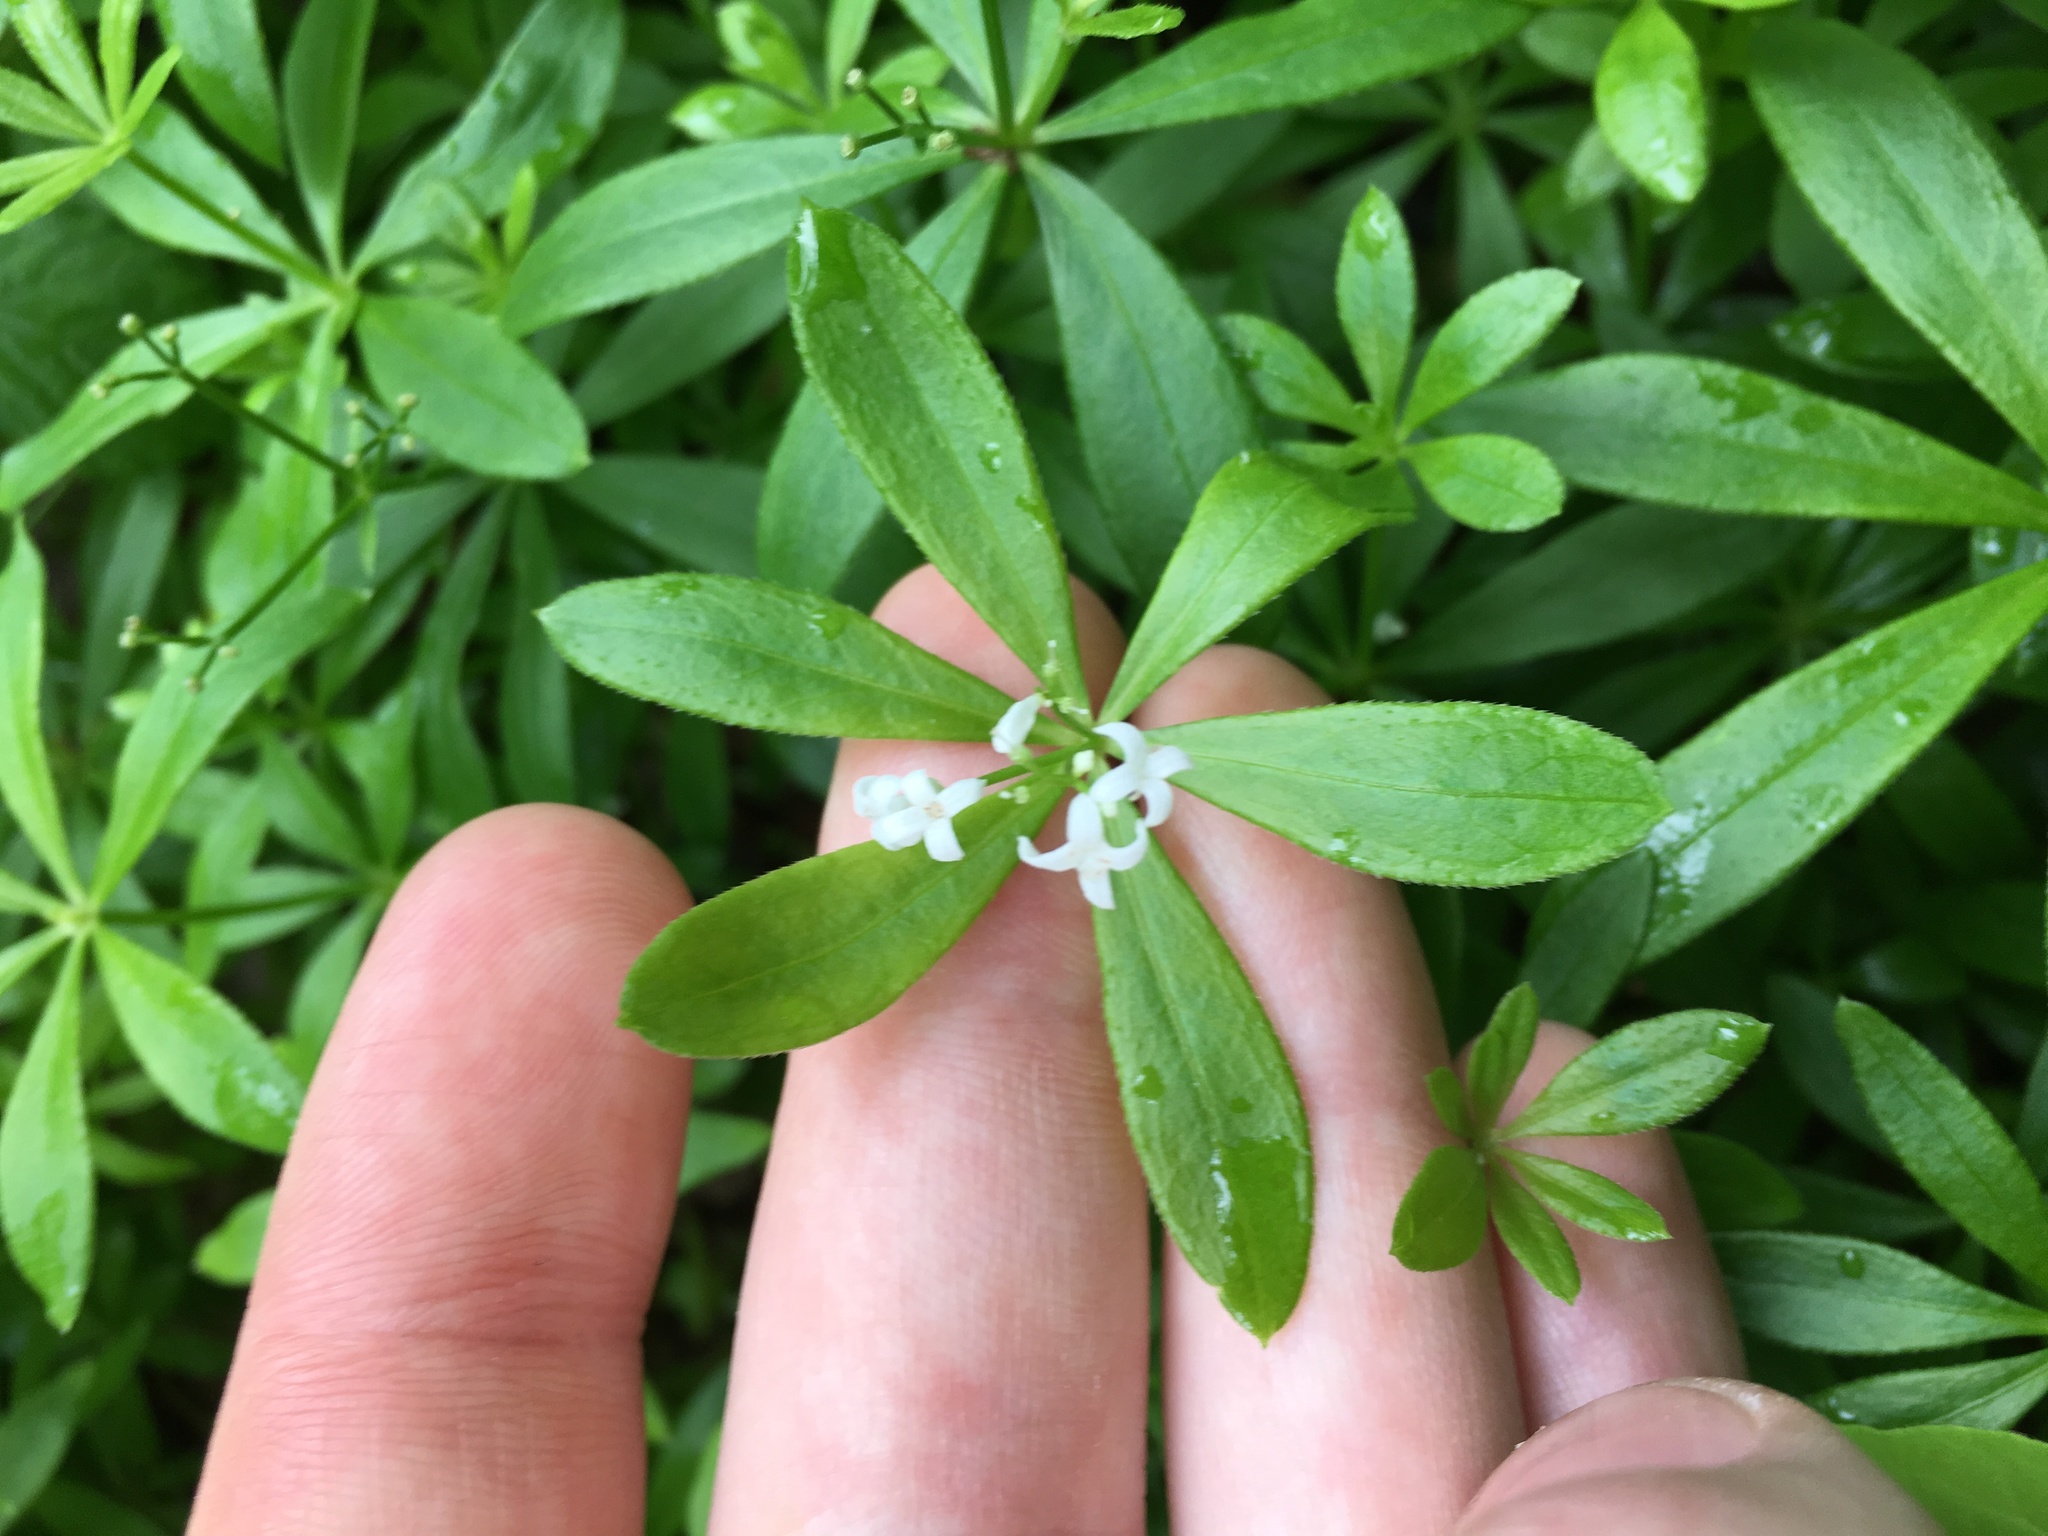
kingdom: Plantae
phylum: Tracheophyta
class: Magnoliopsida
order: Gentianales
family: Rubiaceae
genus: Galium
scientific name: Galium odoratum
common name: Sweet woodruff
